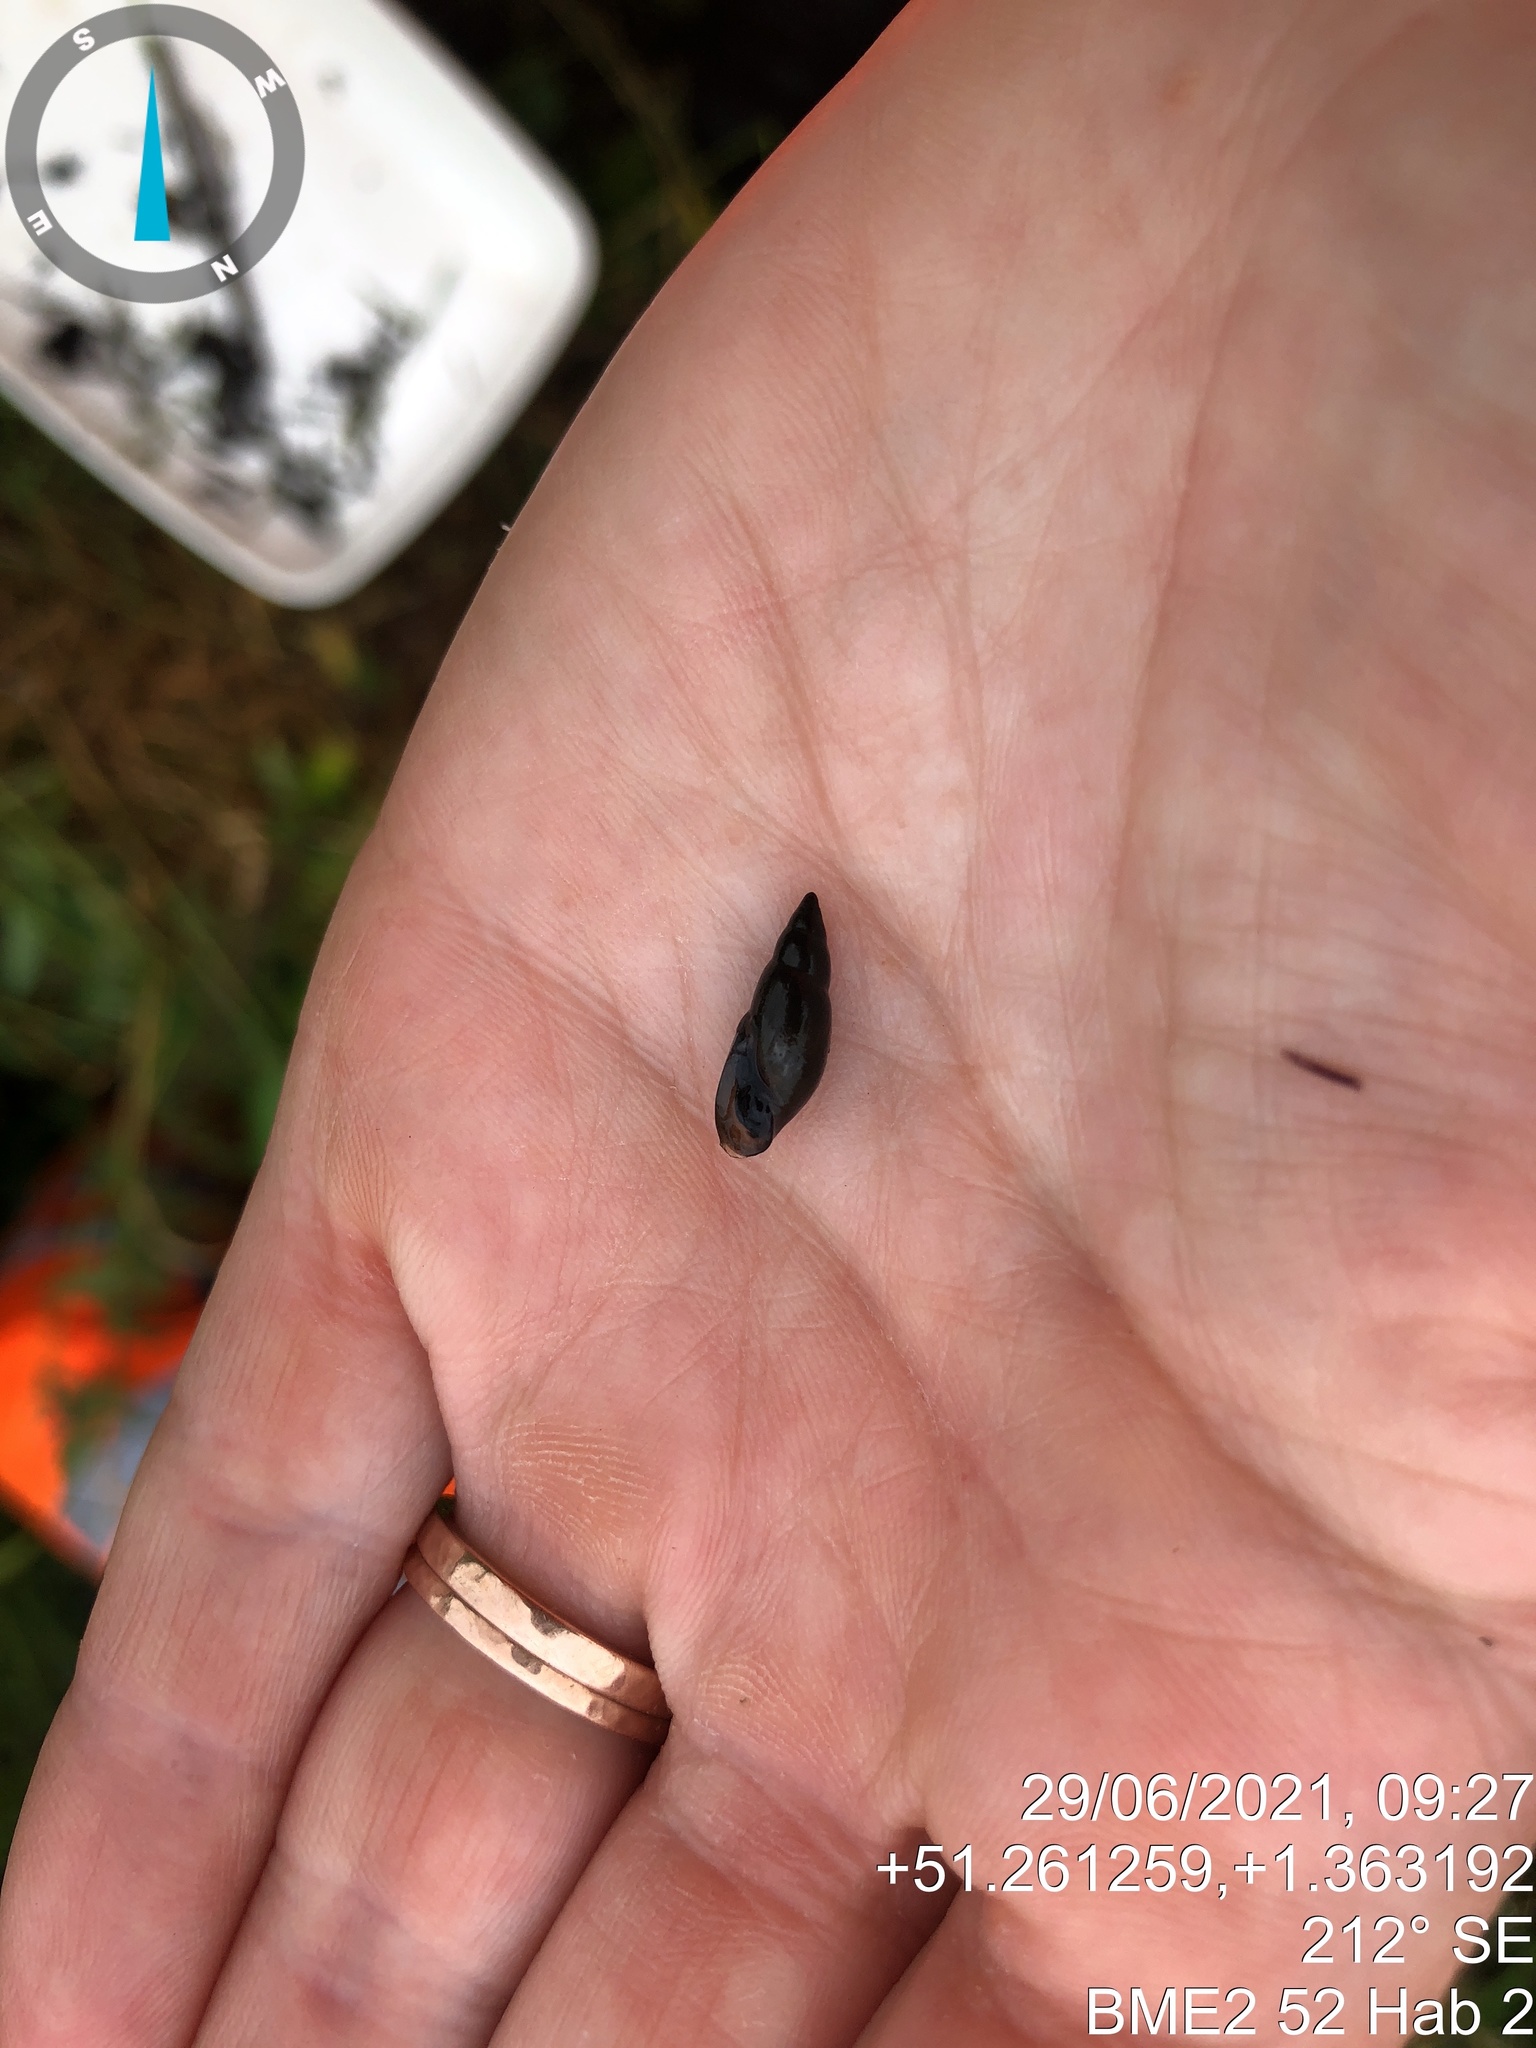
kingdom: Animalia
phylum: Mollusca
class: Gastropoda
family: Physidae
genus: Aplexa
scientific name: Aplexa hypnorum
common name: Moss bladder snail
